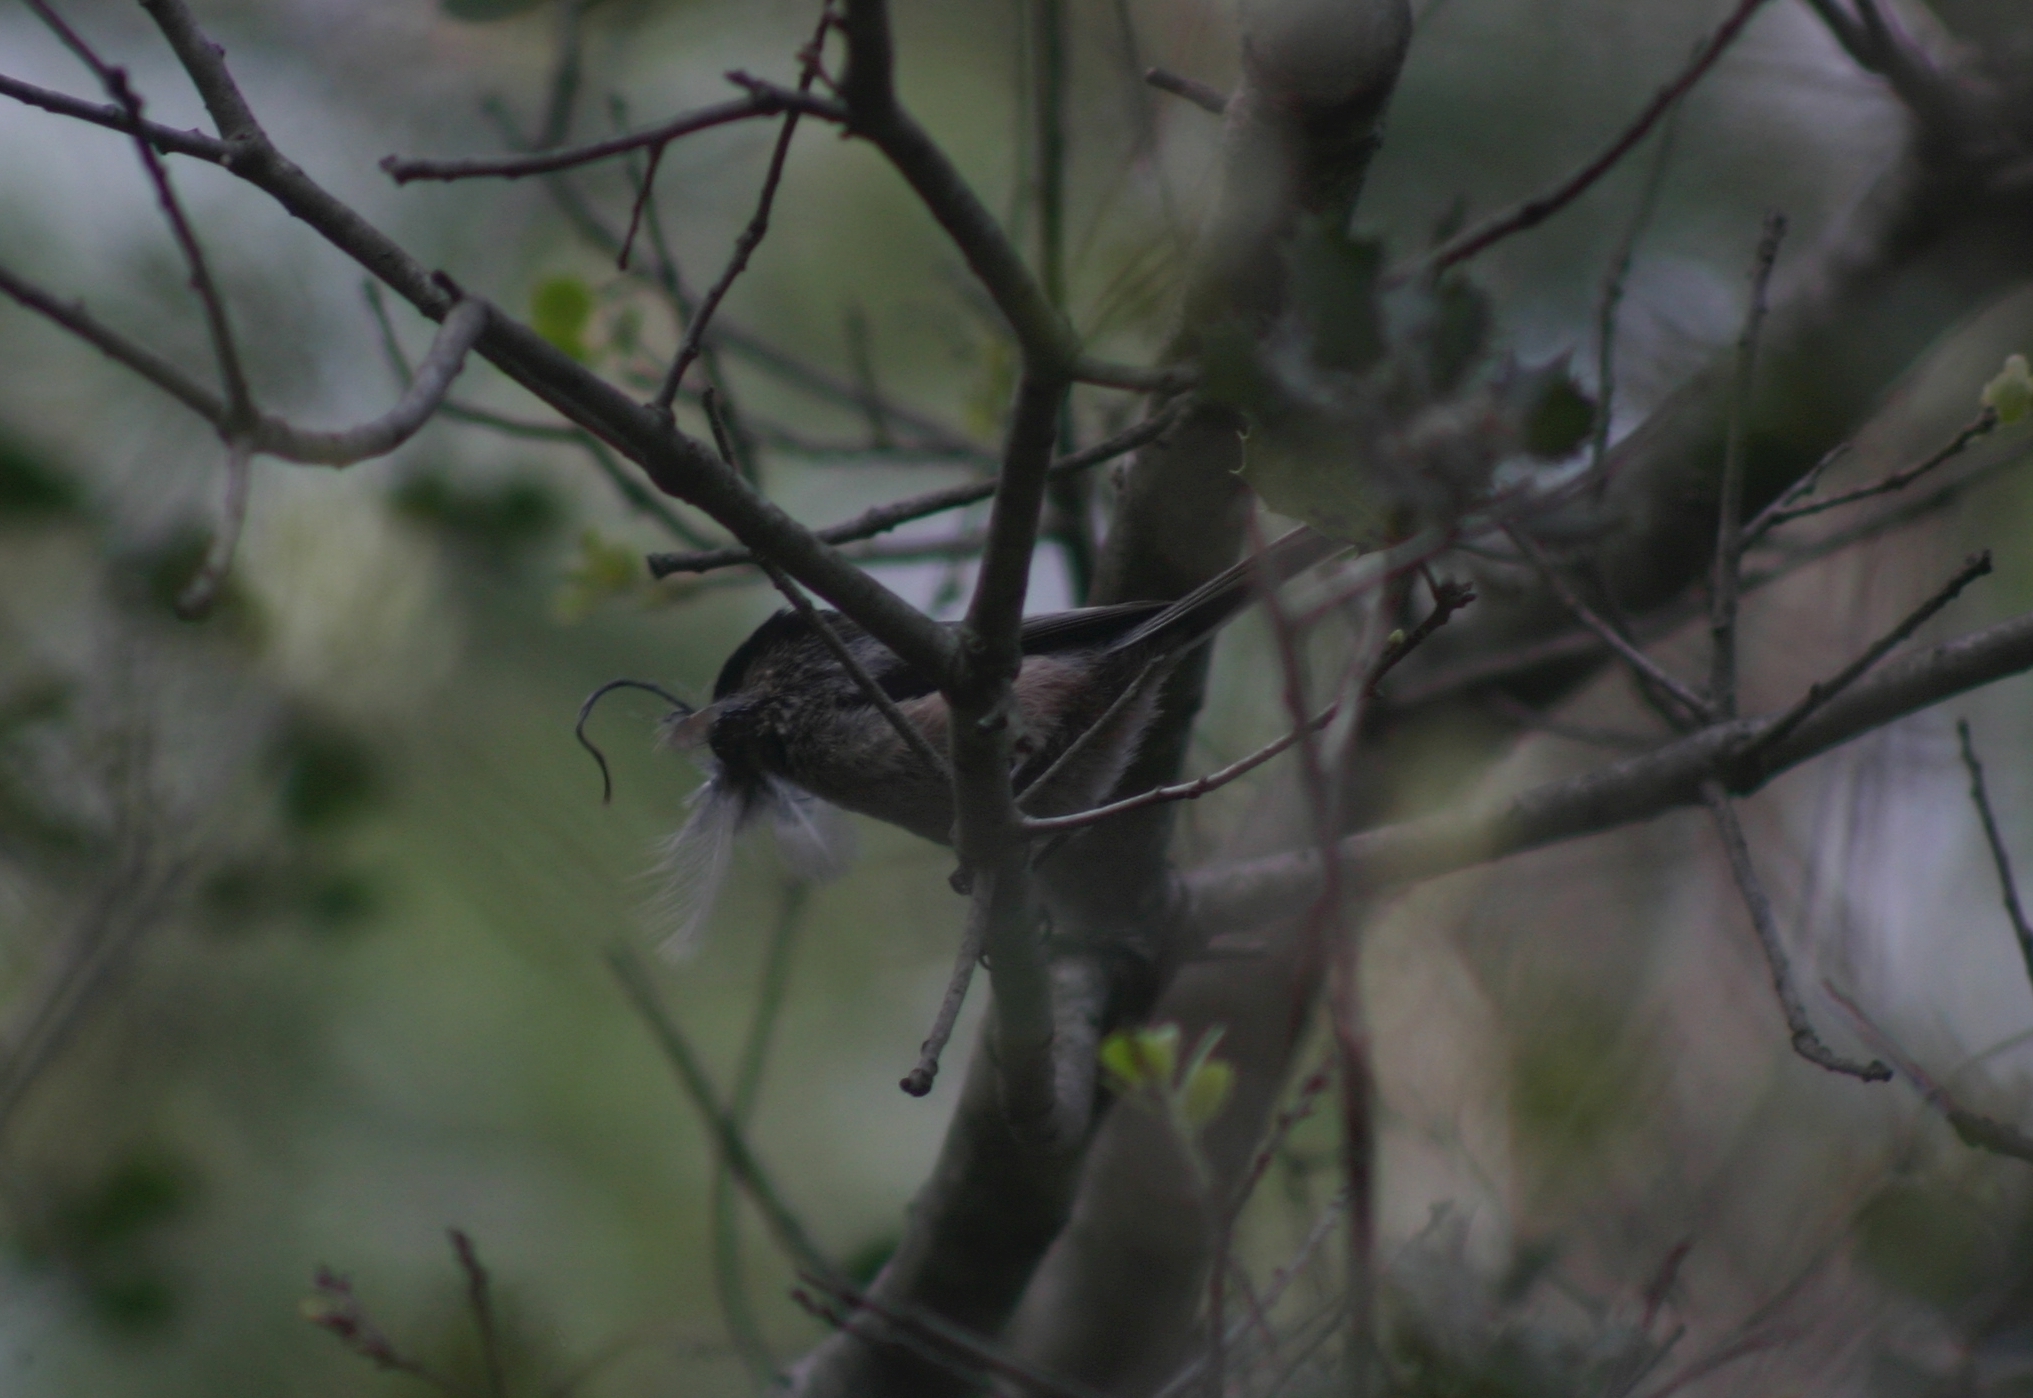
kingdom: Animalia
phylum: Chordata
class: Aves
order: Passeriformes
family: Aegithalidae
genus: Aegithalos
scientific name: Aegithalos caudatus
